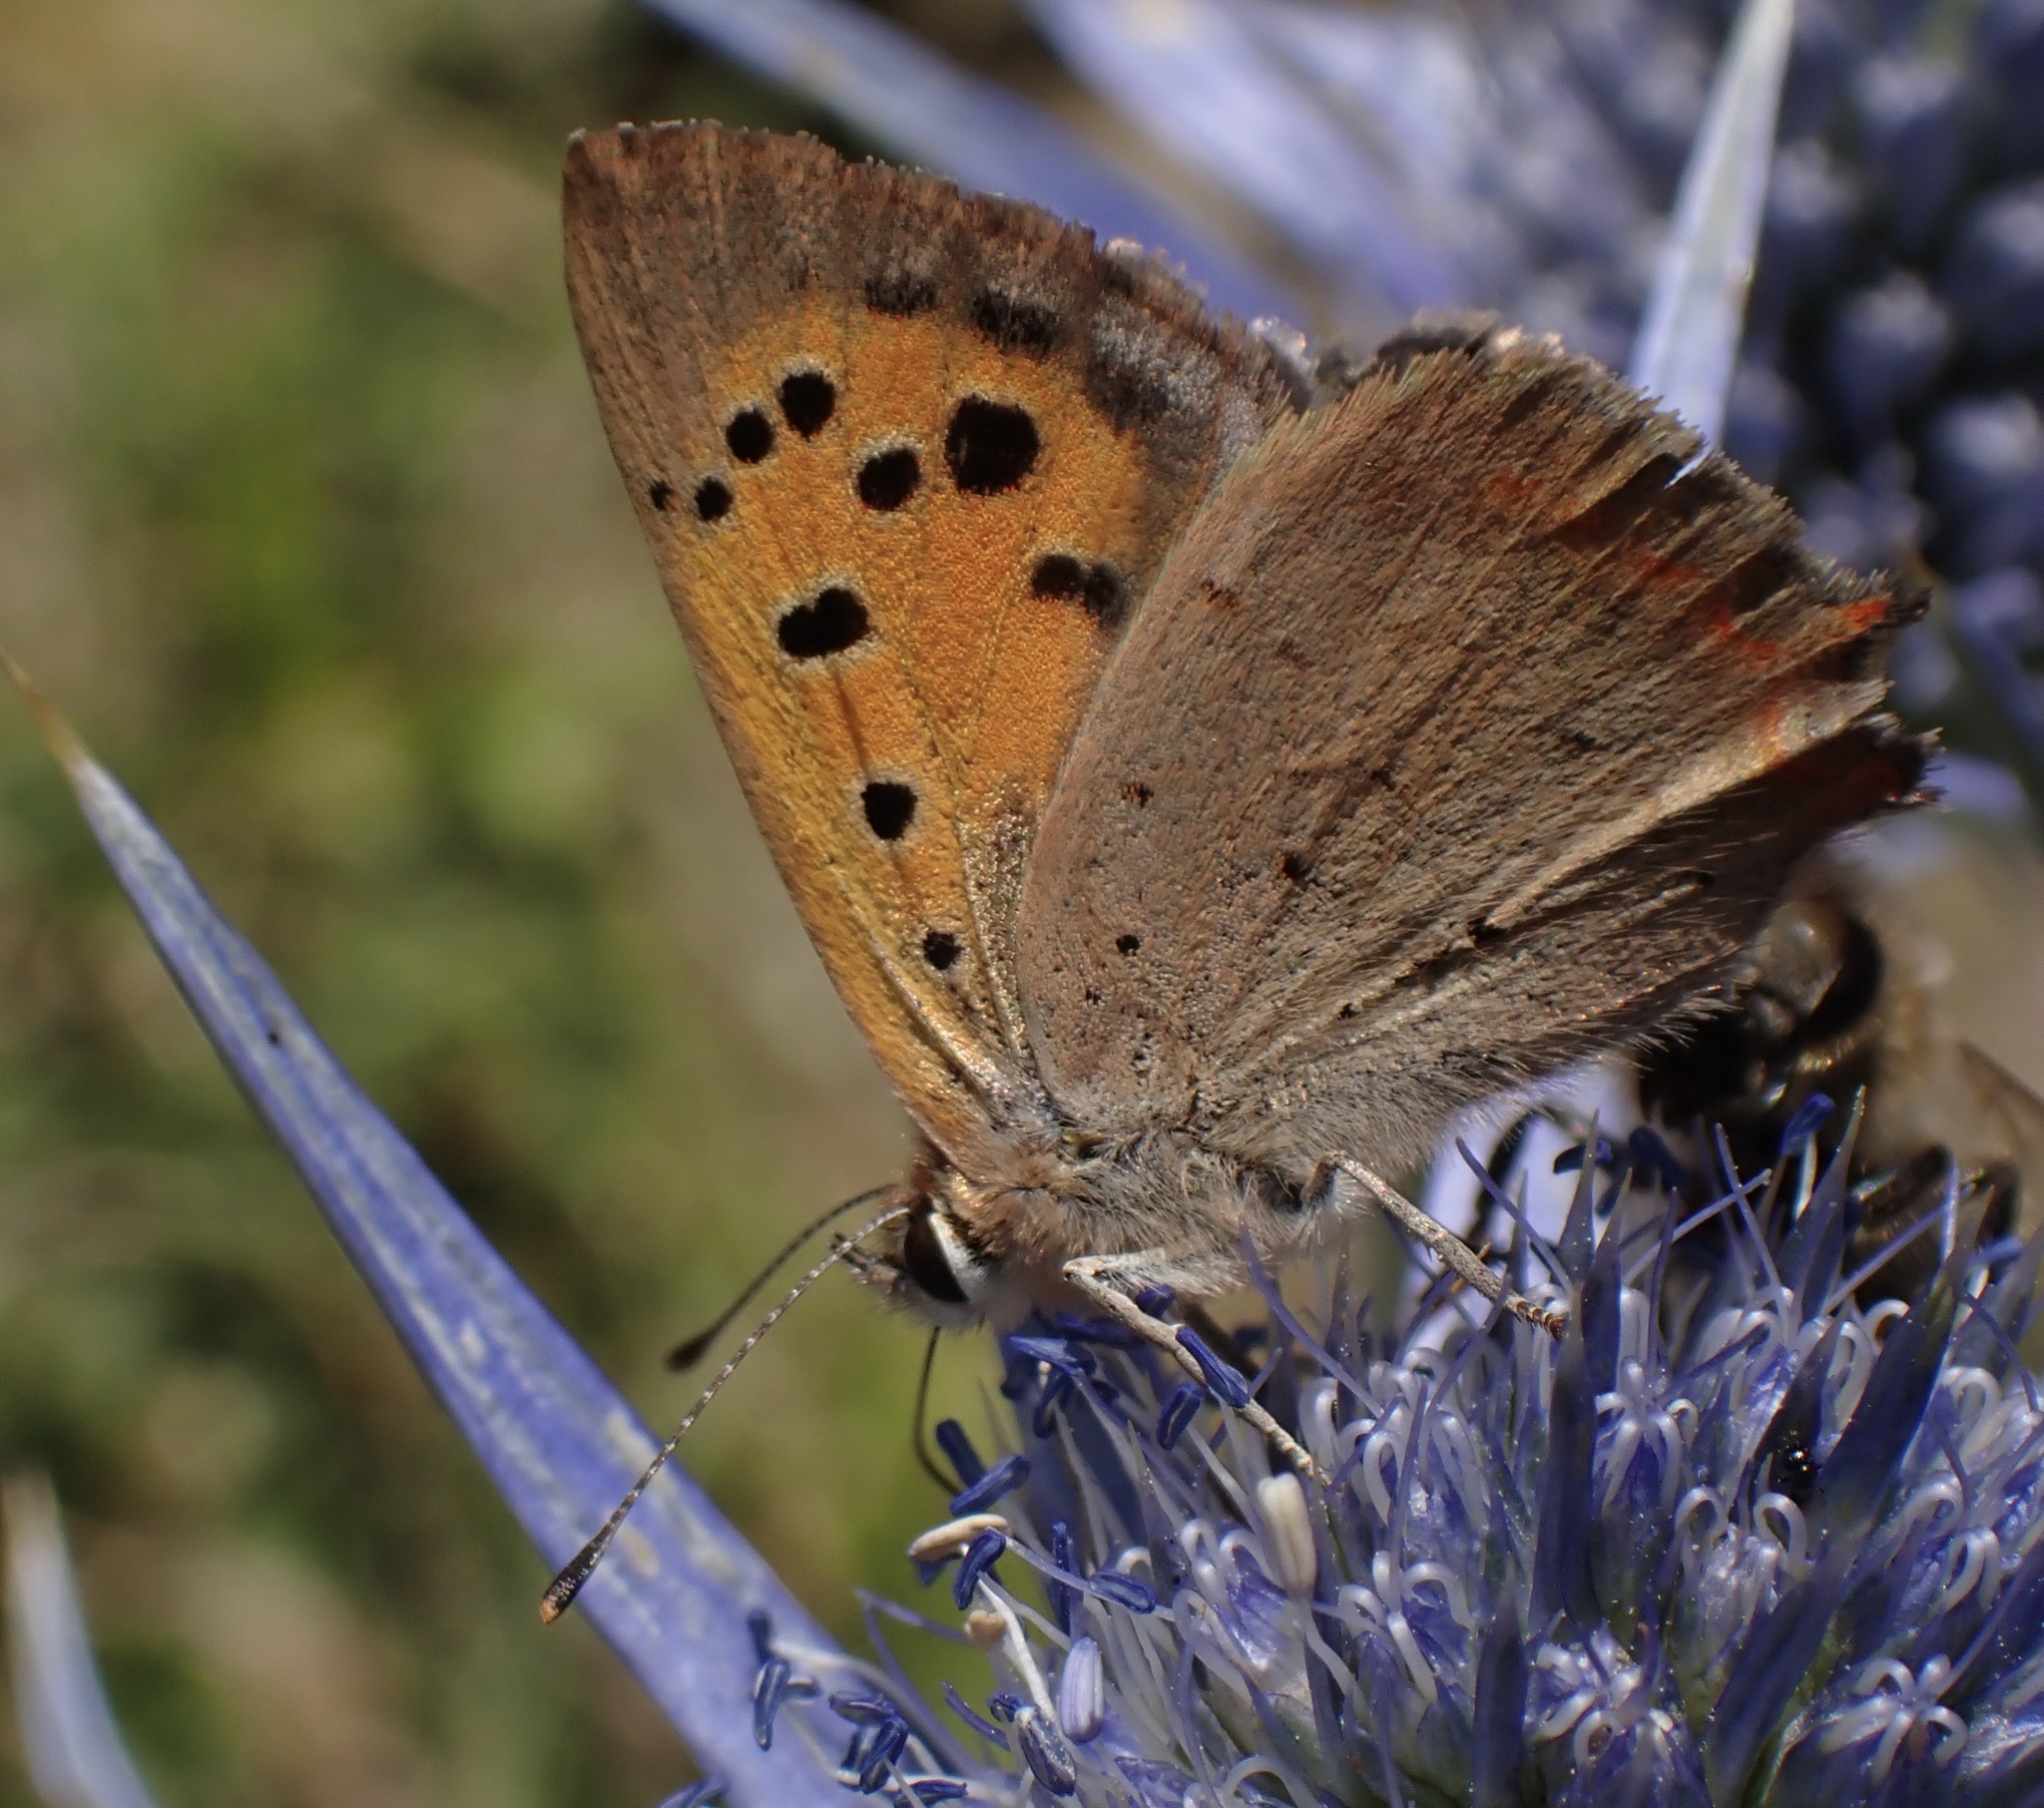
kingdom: Animalia
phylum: Arthropoda
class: Insecta
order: Lepidoptera
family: Lycaenidae
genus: Lycaena
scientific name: Lycaena phlaeas
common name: Small copper
